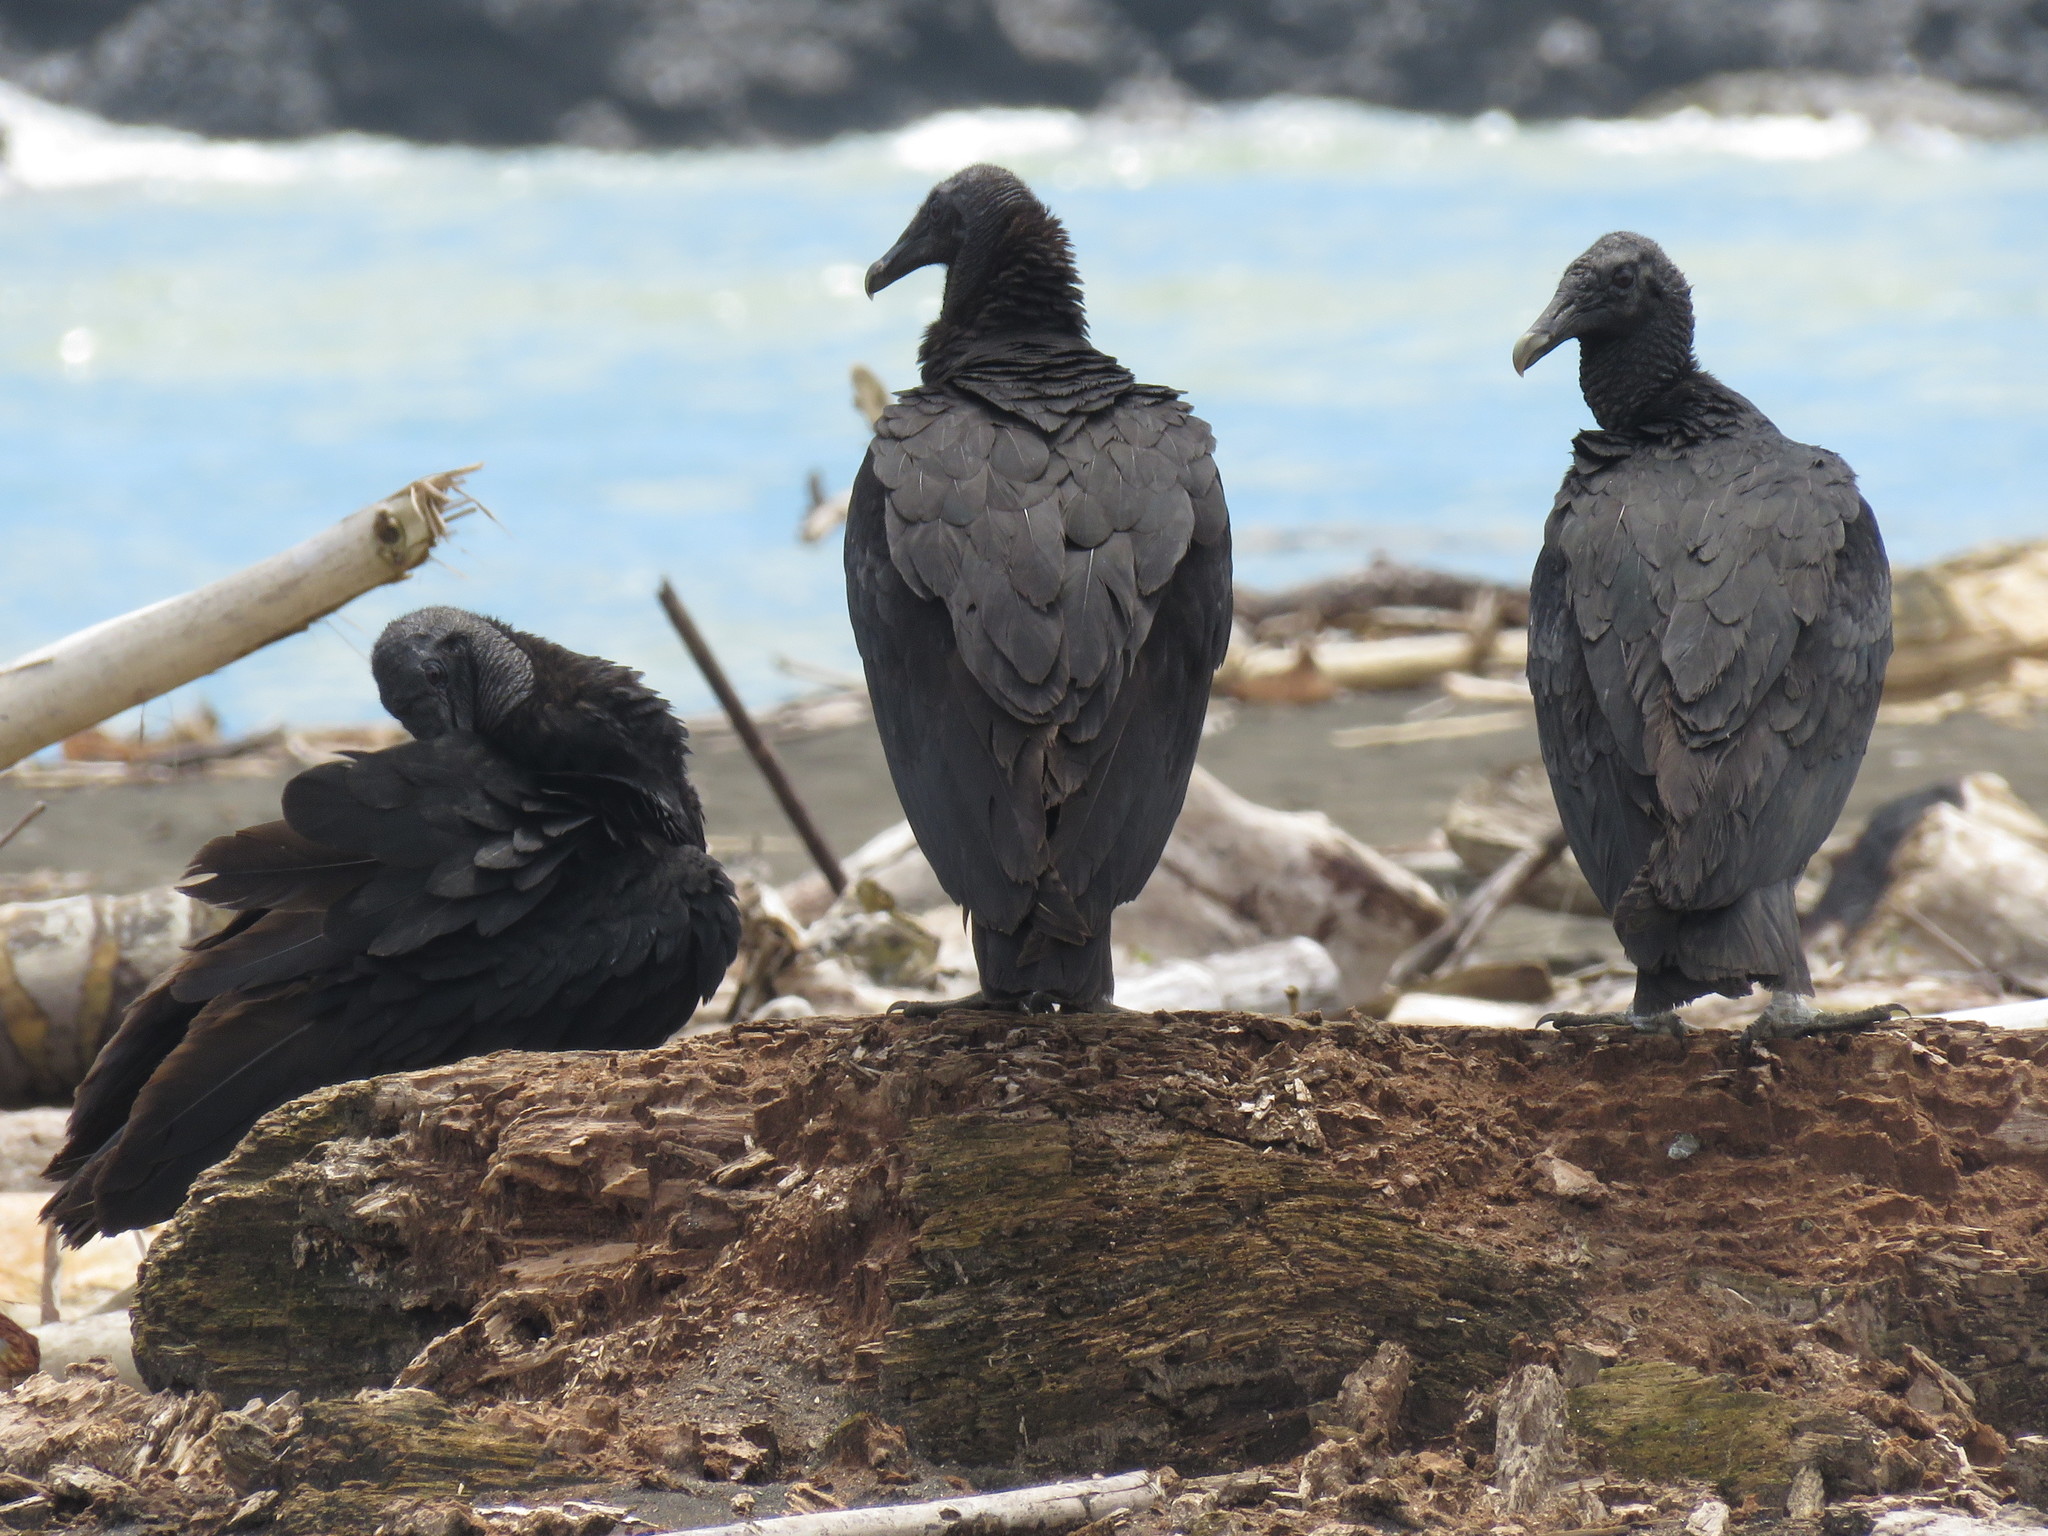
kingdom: Animalia
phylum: Chordata
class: Aves
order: Accipitriformes
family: Cathartidae
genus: Coragyps
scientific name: Coragyps atratus
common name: Black vulture
